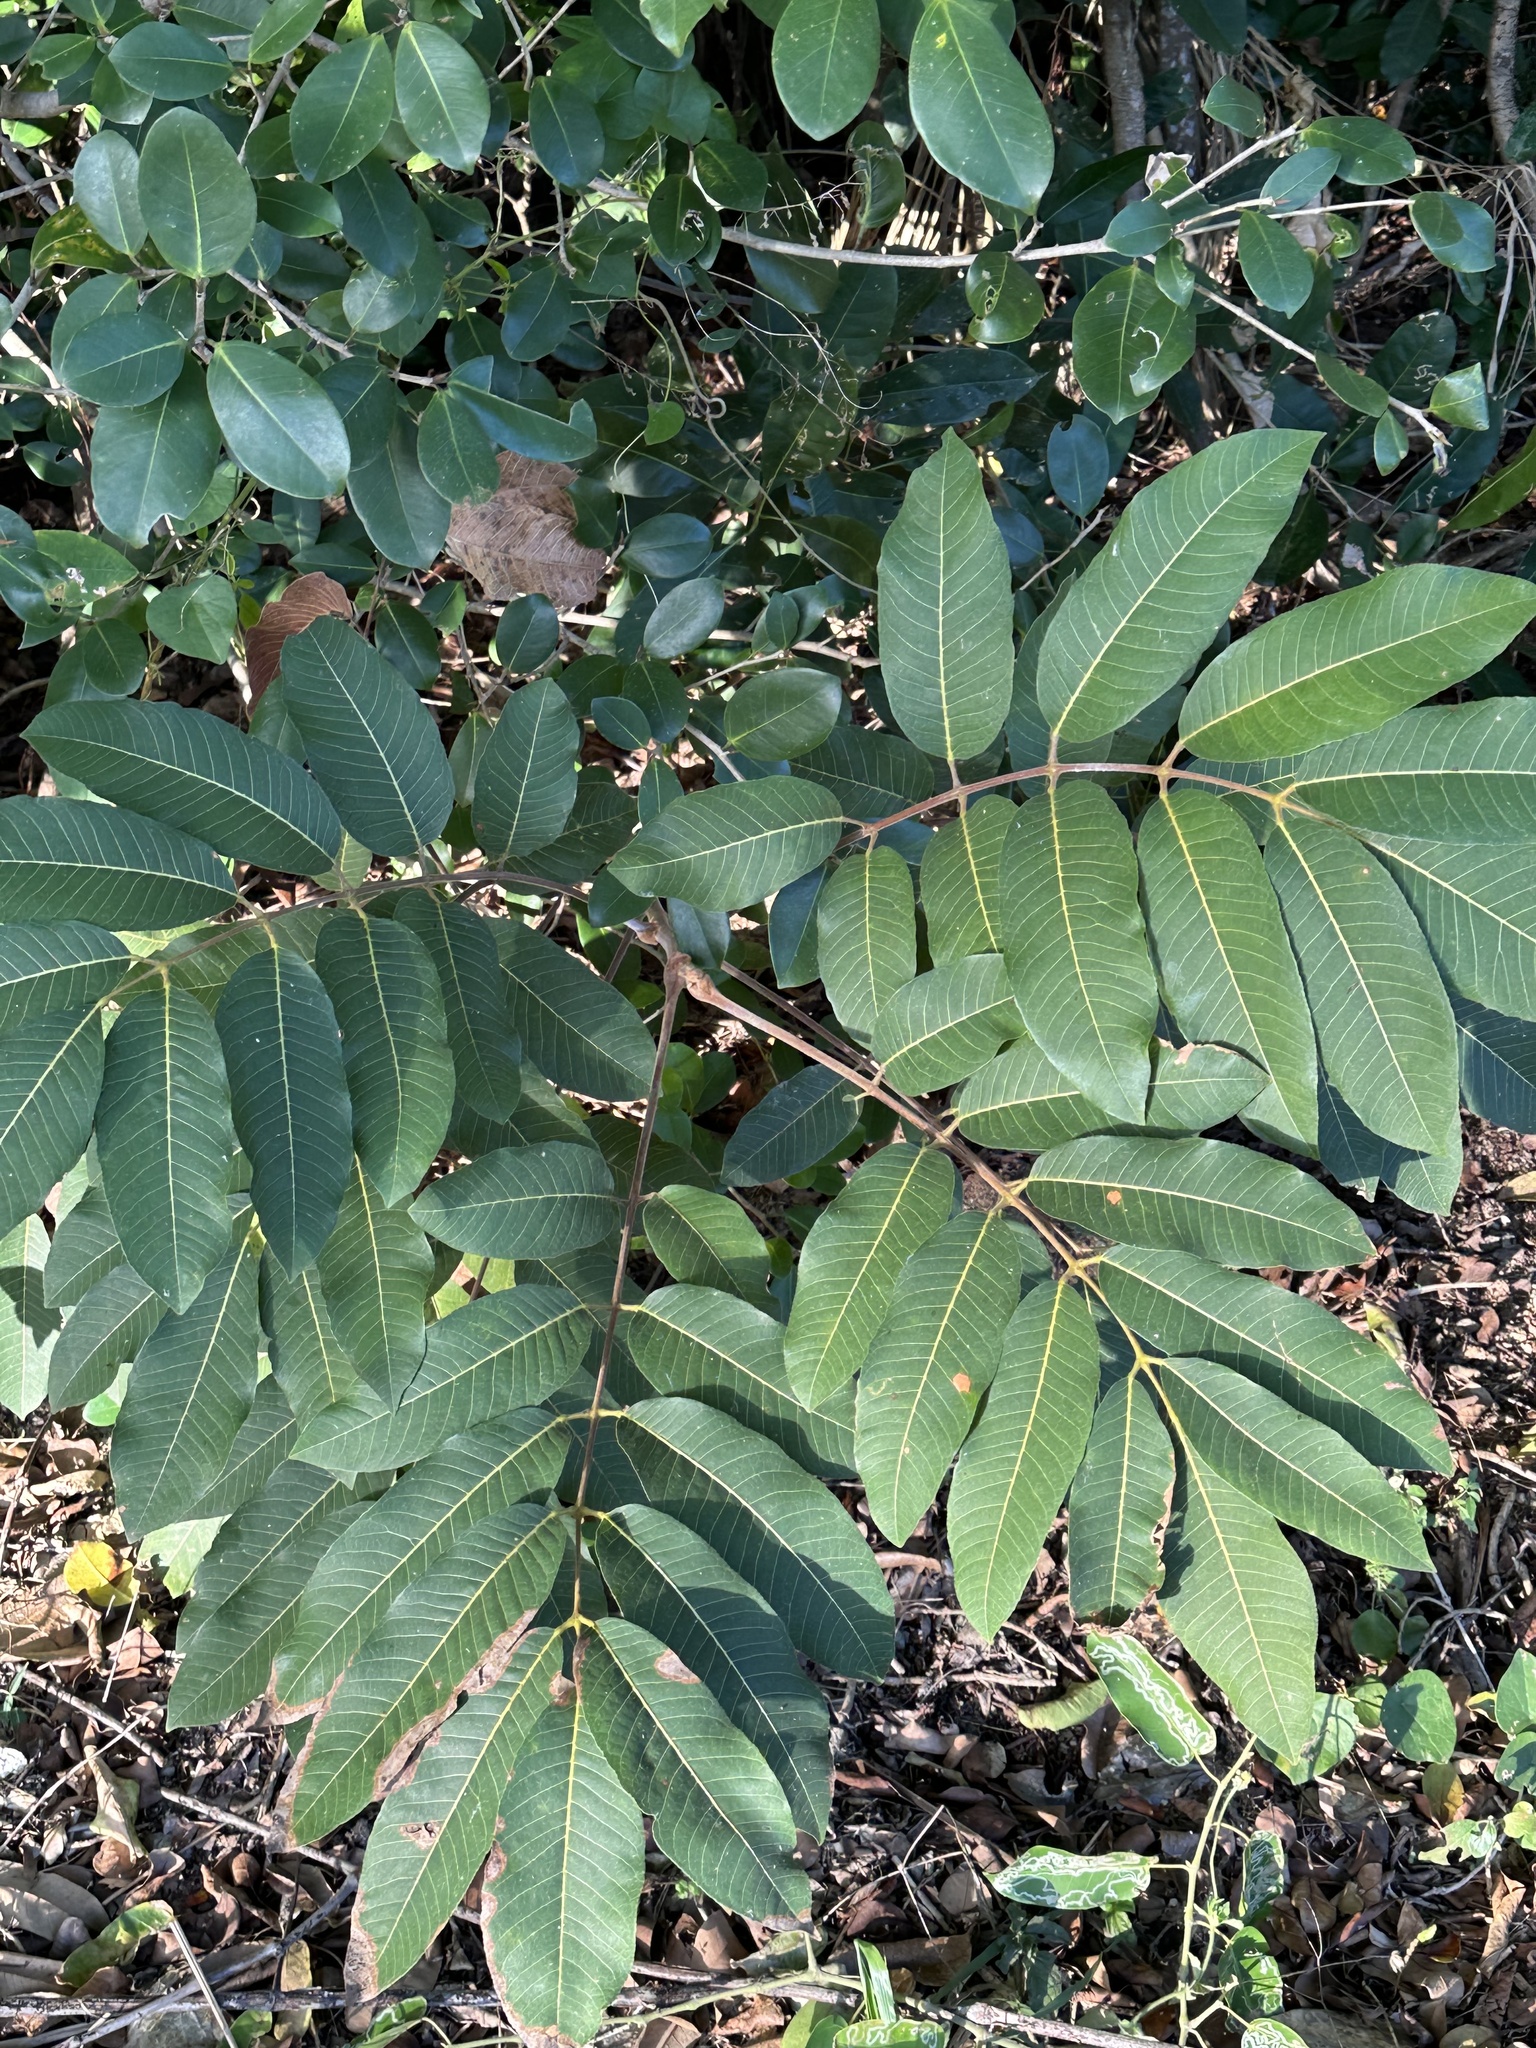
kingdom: Plantae
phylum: Tracheophyta
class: Magnoliopsida
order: Sapindales
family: Burseraceae
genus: Canarium
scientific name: Canarium australianum
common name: Island white-beech
